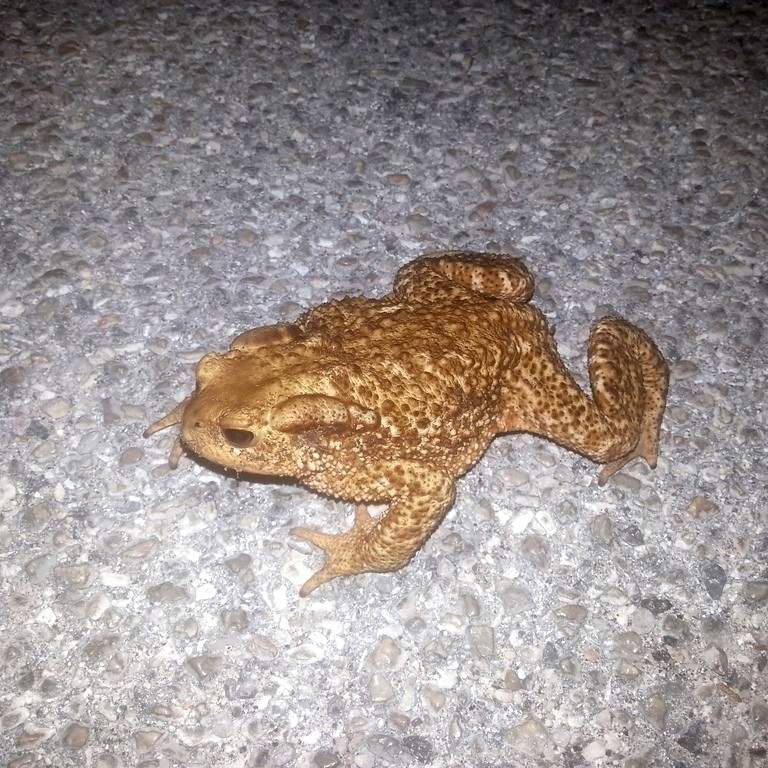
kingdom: Animalia
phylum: Chordata
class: Amphibia
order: Anura
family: Bufonidae
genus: Bufo
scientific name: Bufo bufo
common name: Common toad
